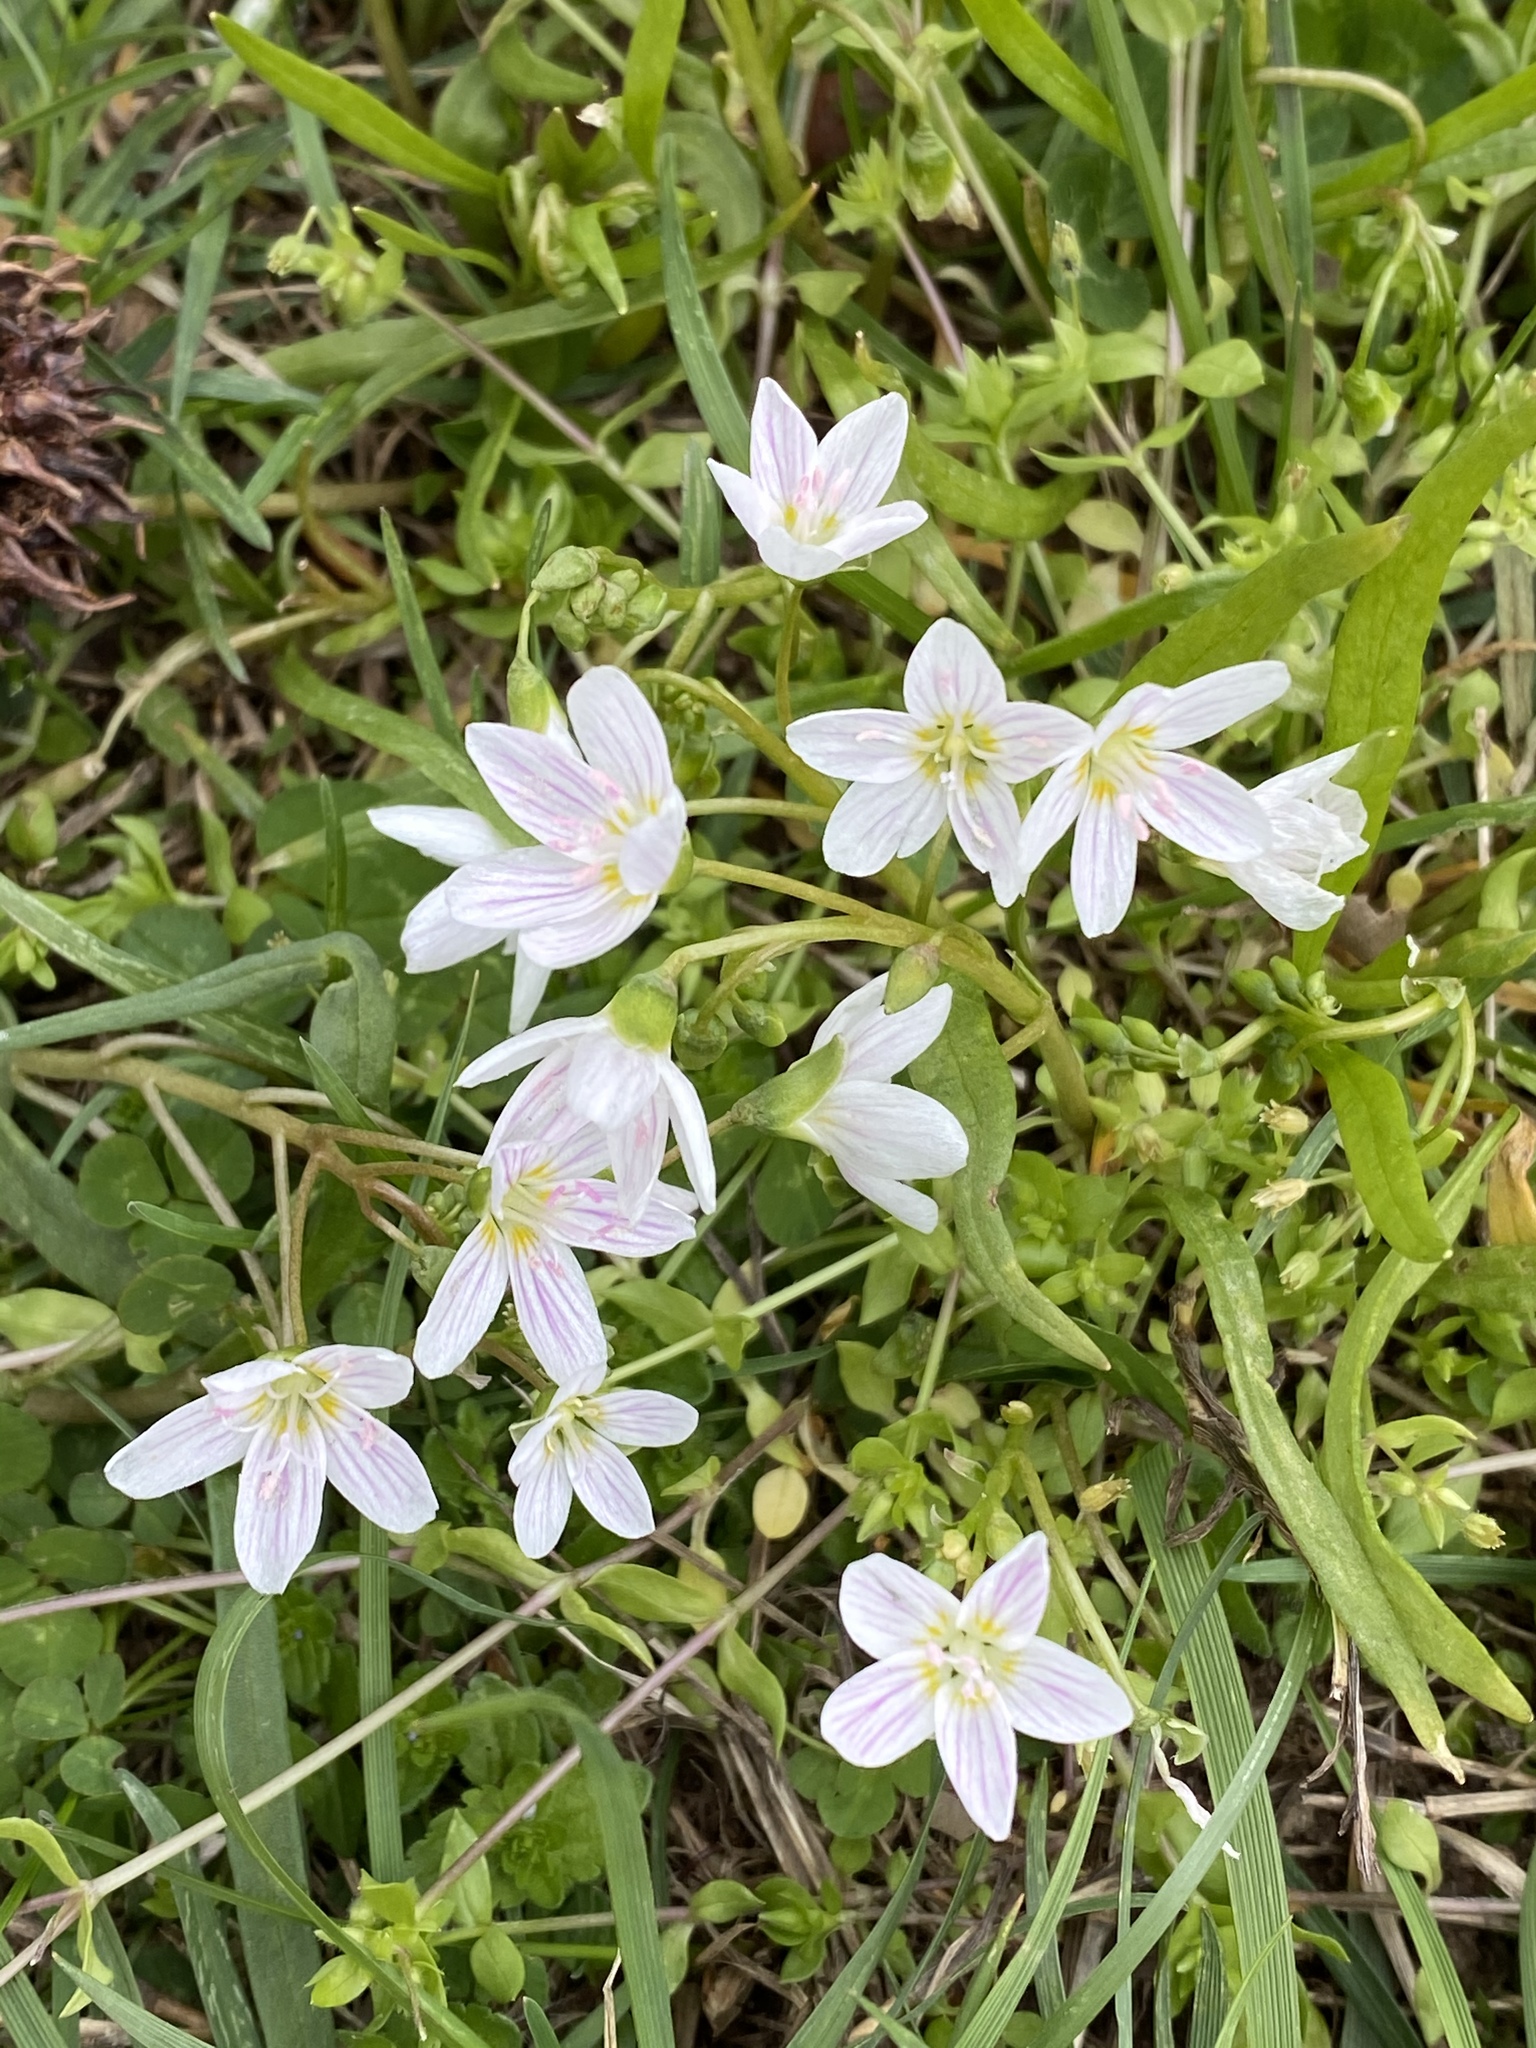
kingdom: Plantae
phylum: Tracheophyta
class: Magnoliopsida
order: Caryophyllales
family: Montiaceae
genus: Claytonia
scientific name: Claytonia virginica
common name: Virginia springbeauty
